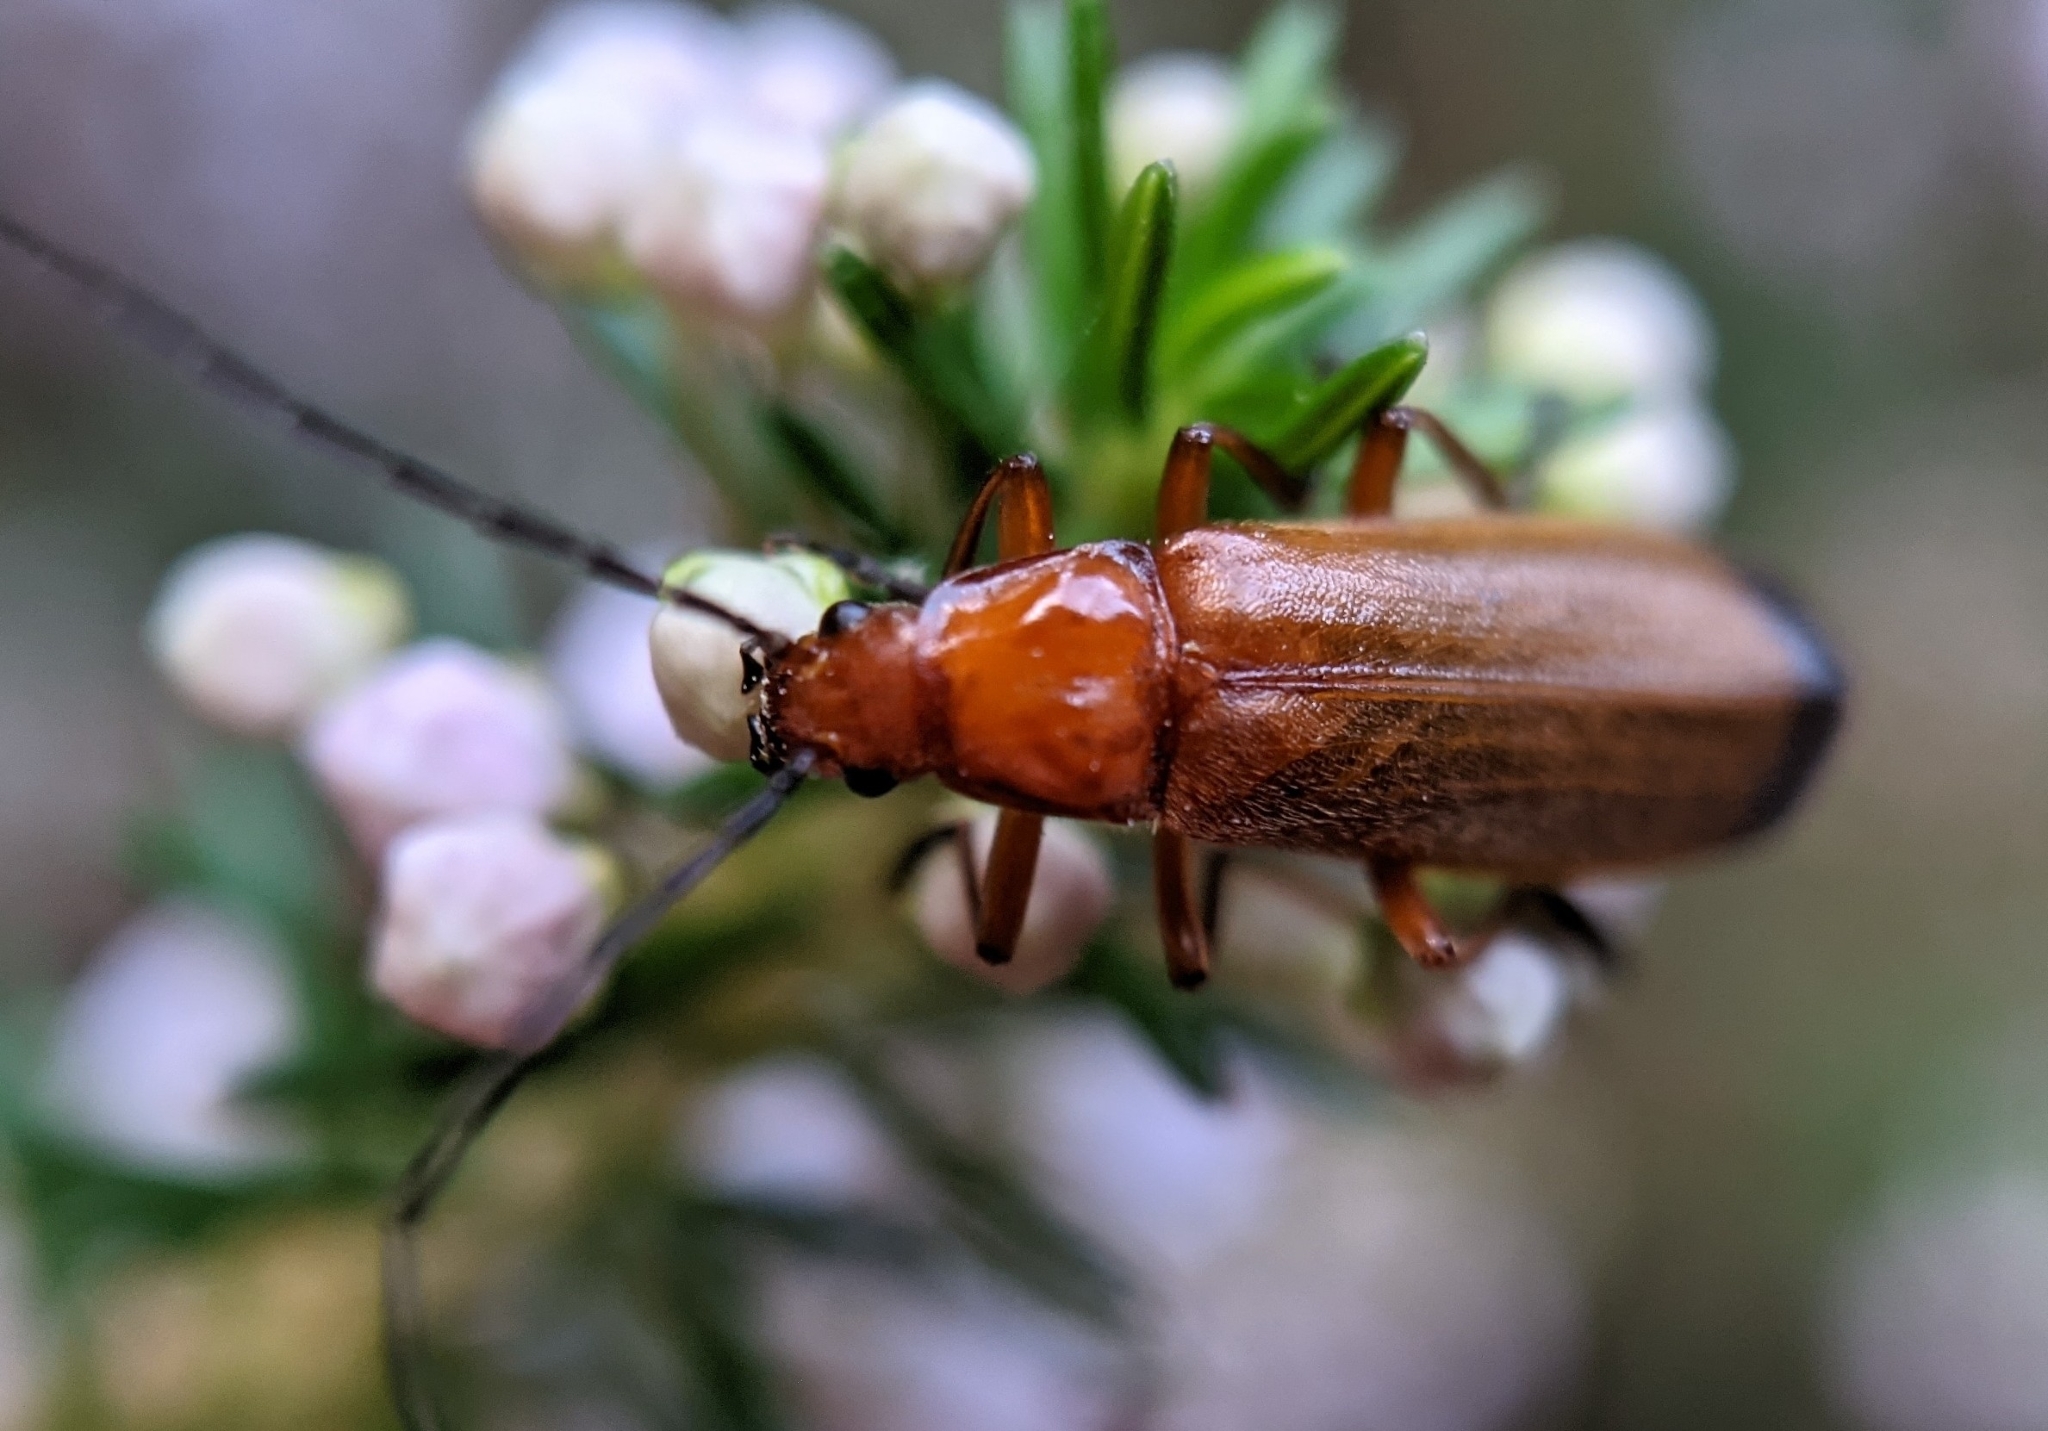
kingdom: Animalia
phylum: Arthropoda
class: Insecta
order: Coleoptera
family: Cantharidae
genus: Rhagonycha
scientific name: Rhagonycha fulva
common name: Common red soldier beetle
